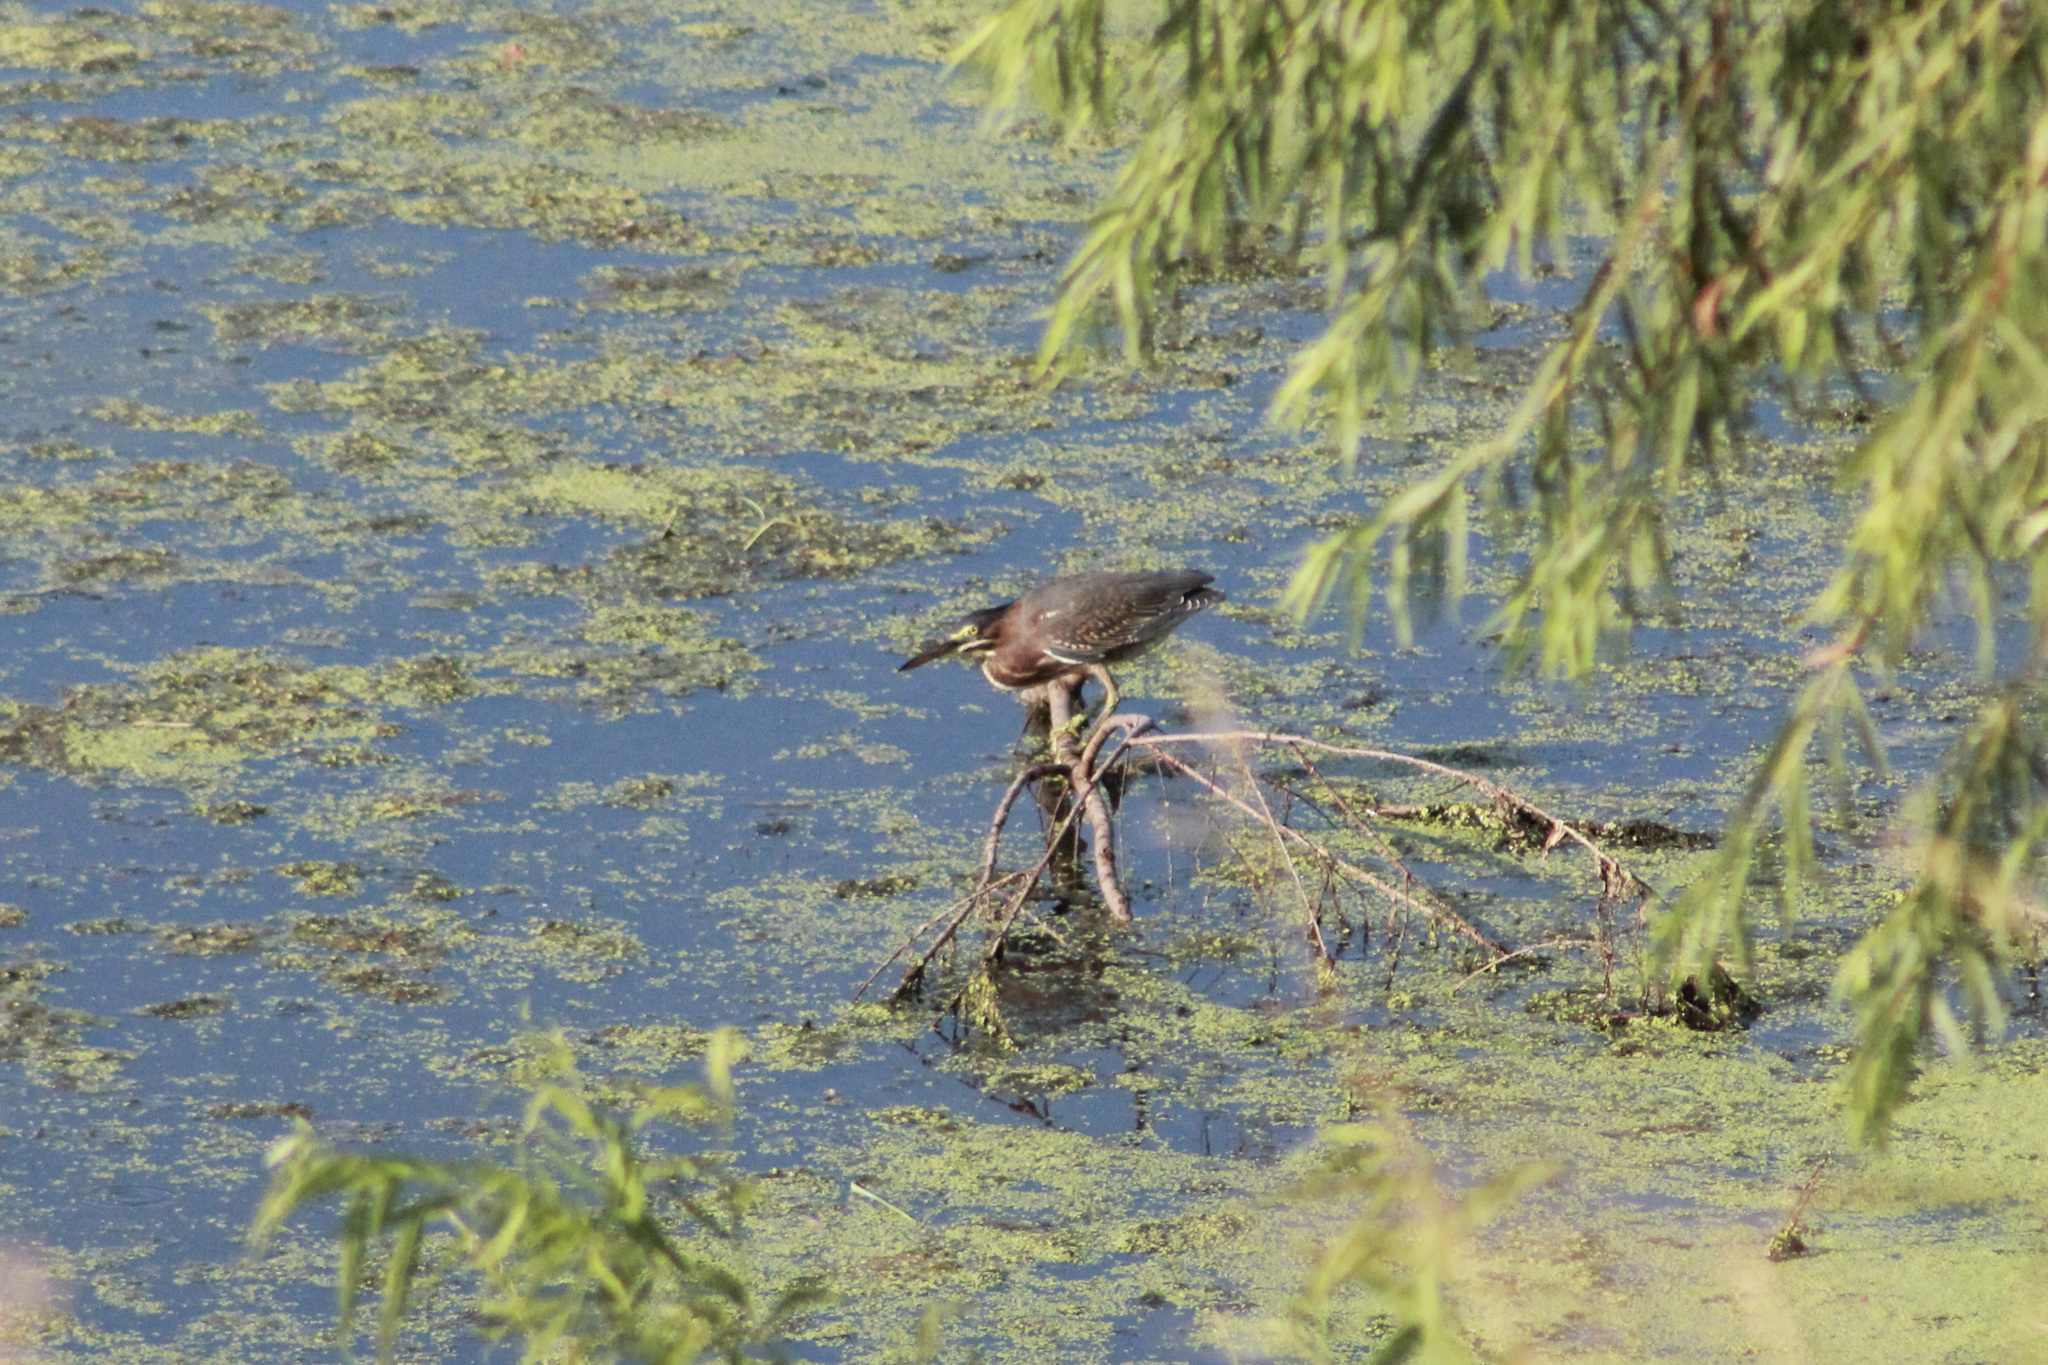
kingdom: Animalia
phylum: Chordata
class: Aves
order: Pelecaniformes
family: Ardeidae
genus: Butorides
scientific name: Butorides virescens
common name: Green heron
